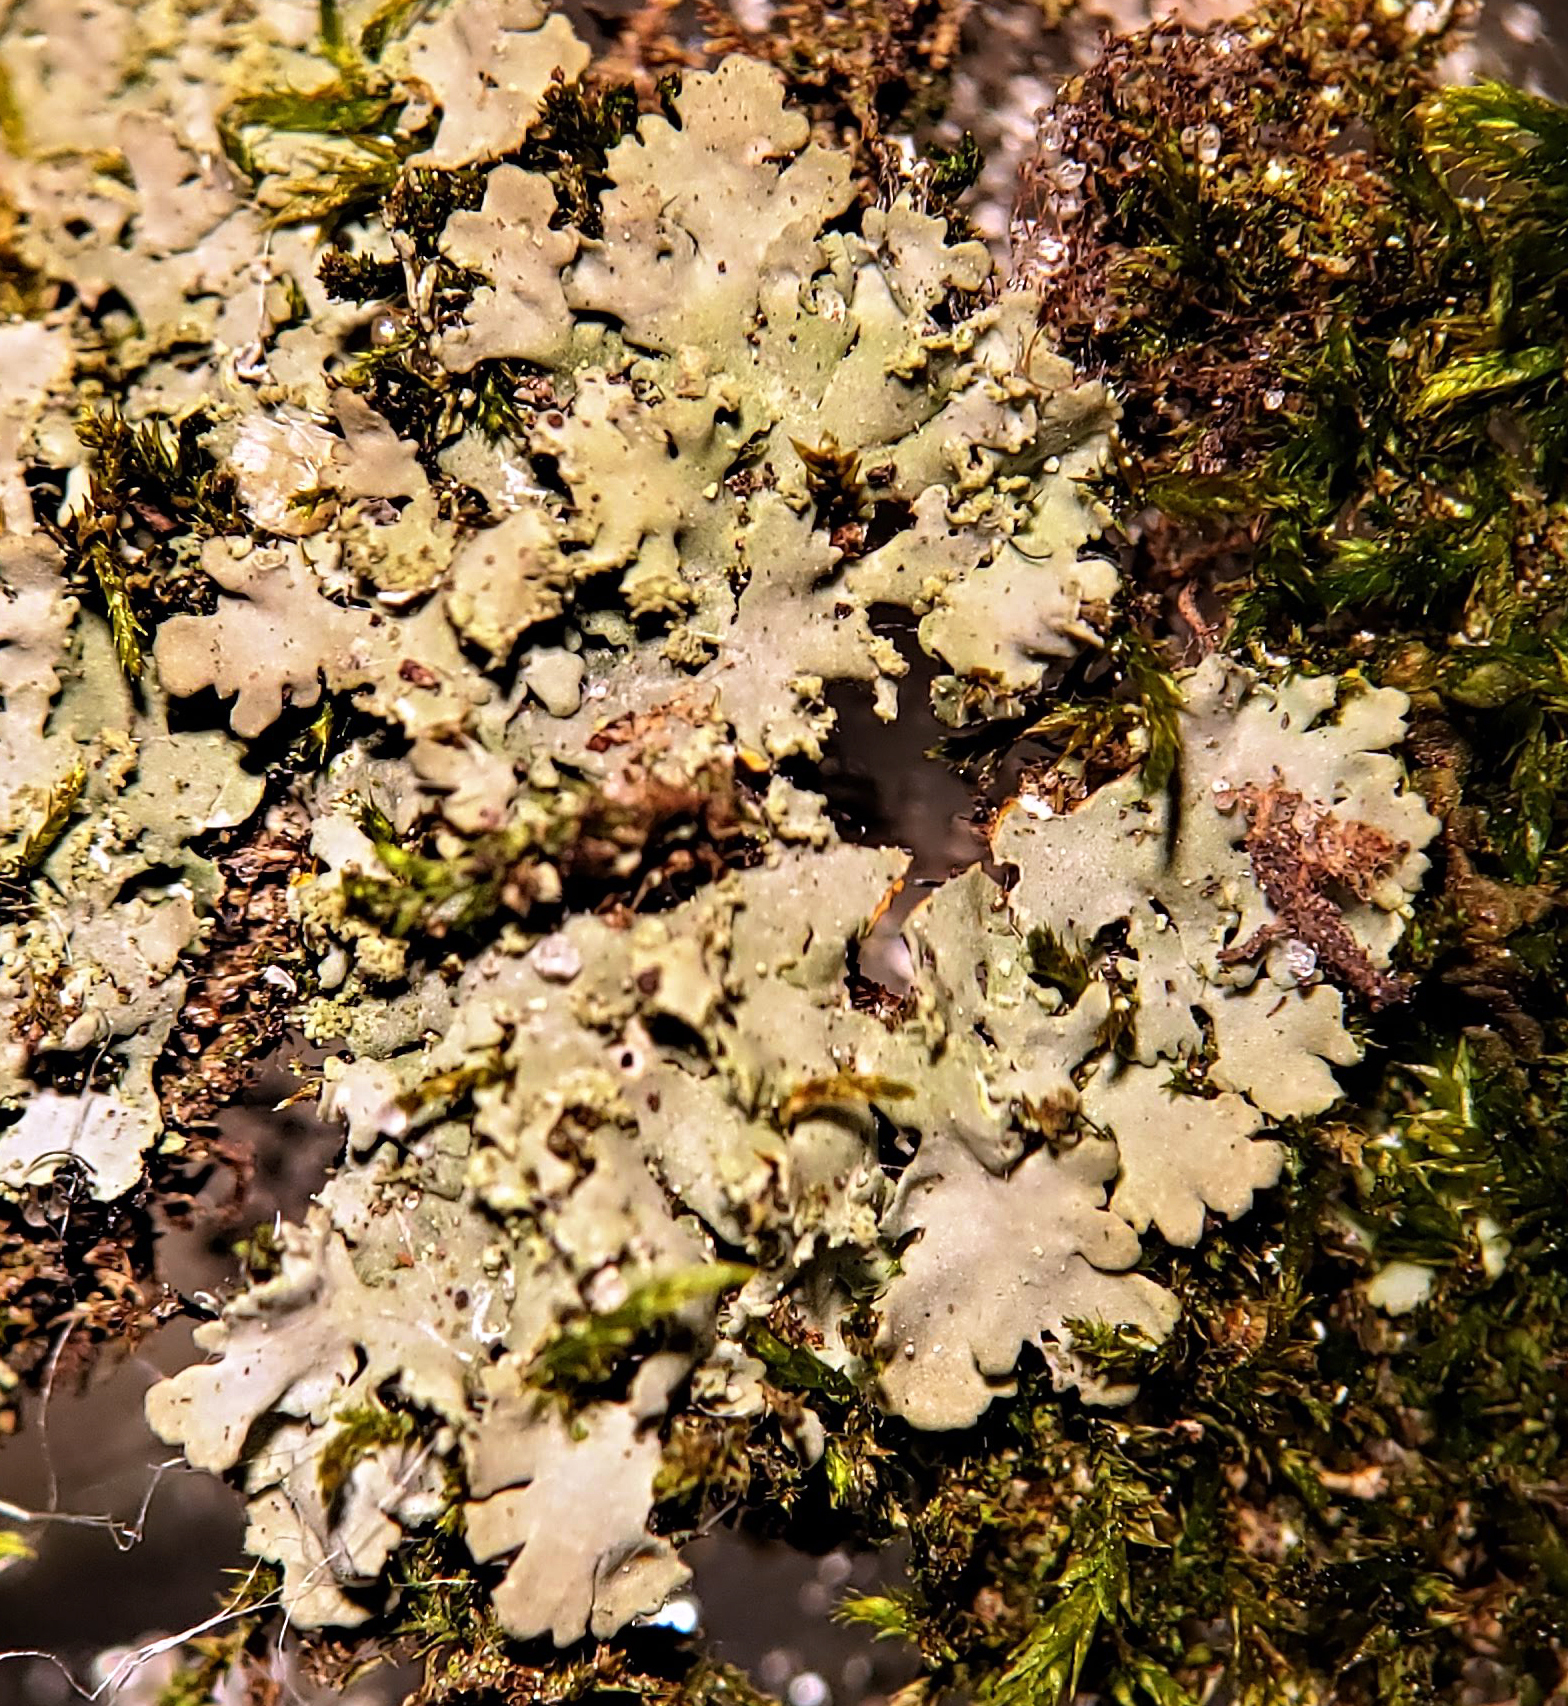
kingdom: Fungi
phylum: Ascomycota
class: Lecanoromycetes
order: Caliciales
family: Physciaceae
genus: Phaeophyscia
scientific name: Phaeophyscia rubropulchra
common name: Orange-cored shadow lichen
